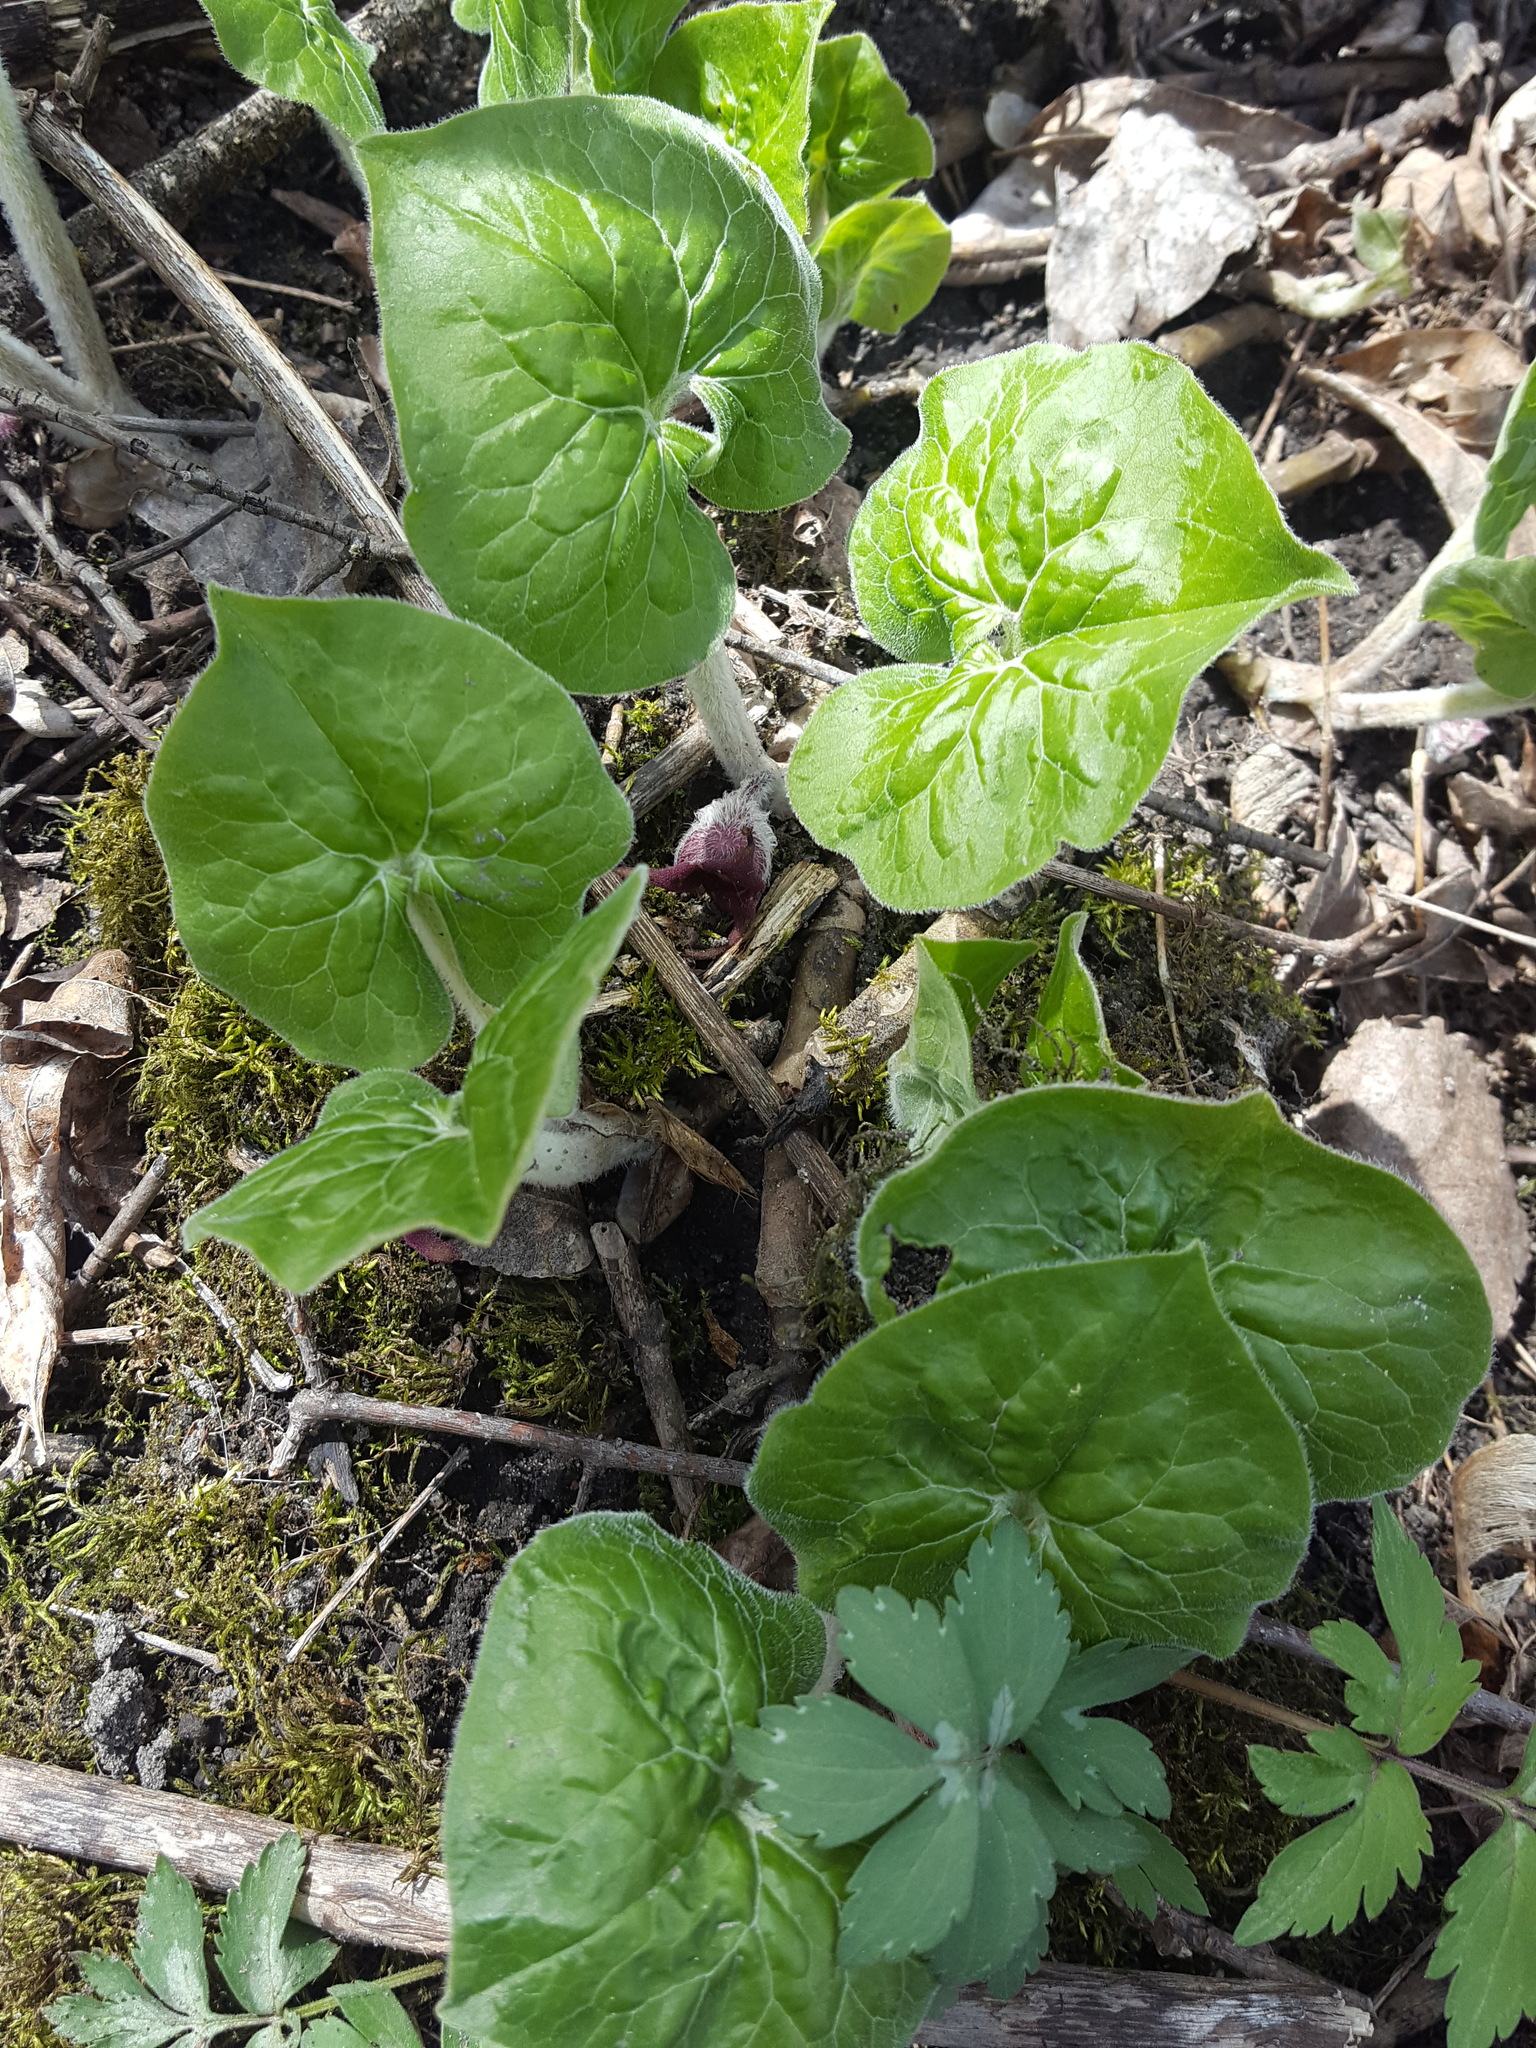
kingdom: Plantae
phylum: Tracheophyta
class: Magnoliopsida
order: Piperales
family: Aristolochiaceae
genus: Asarum
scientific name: Asarum canadense
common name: Wild ginger
